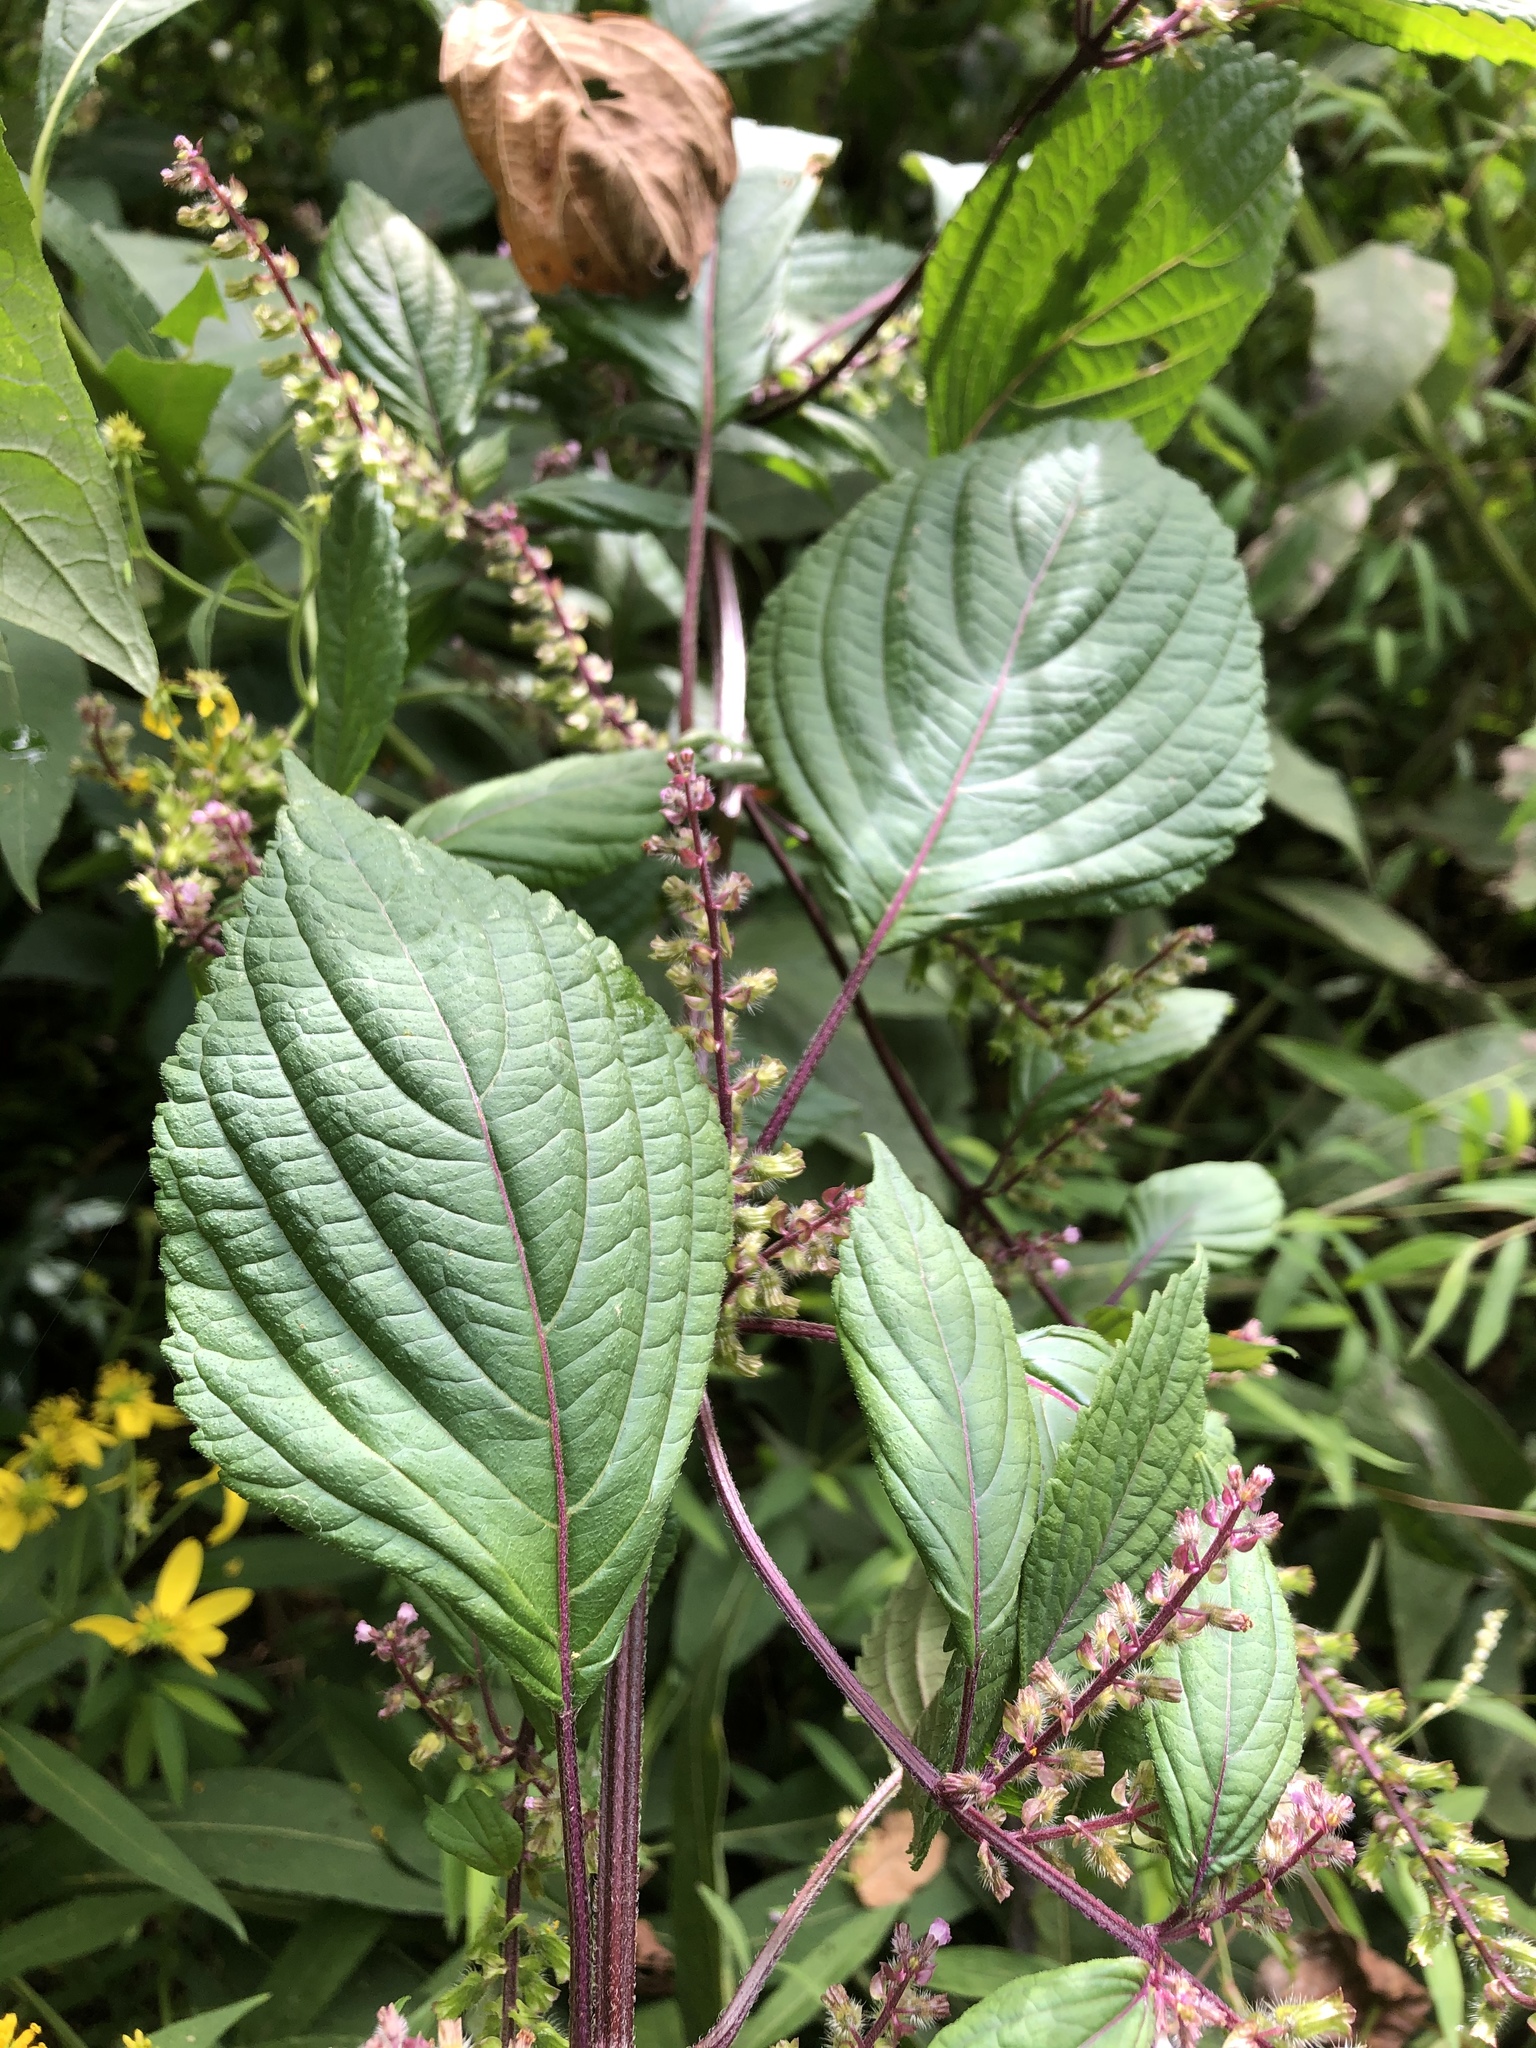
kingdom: Plantae
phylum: Tracheophyta
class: Magnoliopsida
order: Lamiales
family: Lamiaceae
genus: Perilla
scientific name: Perilla frutescens
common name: Perilla
